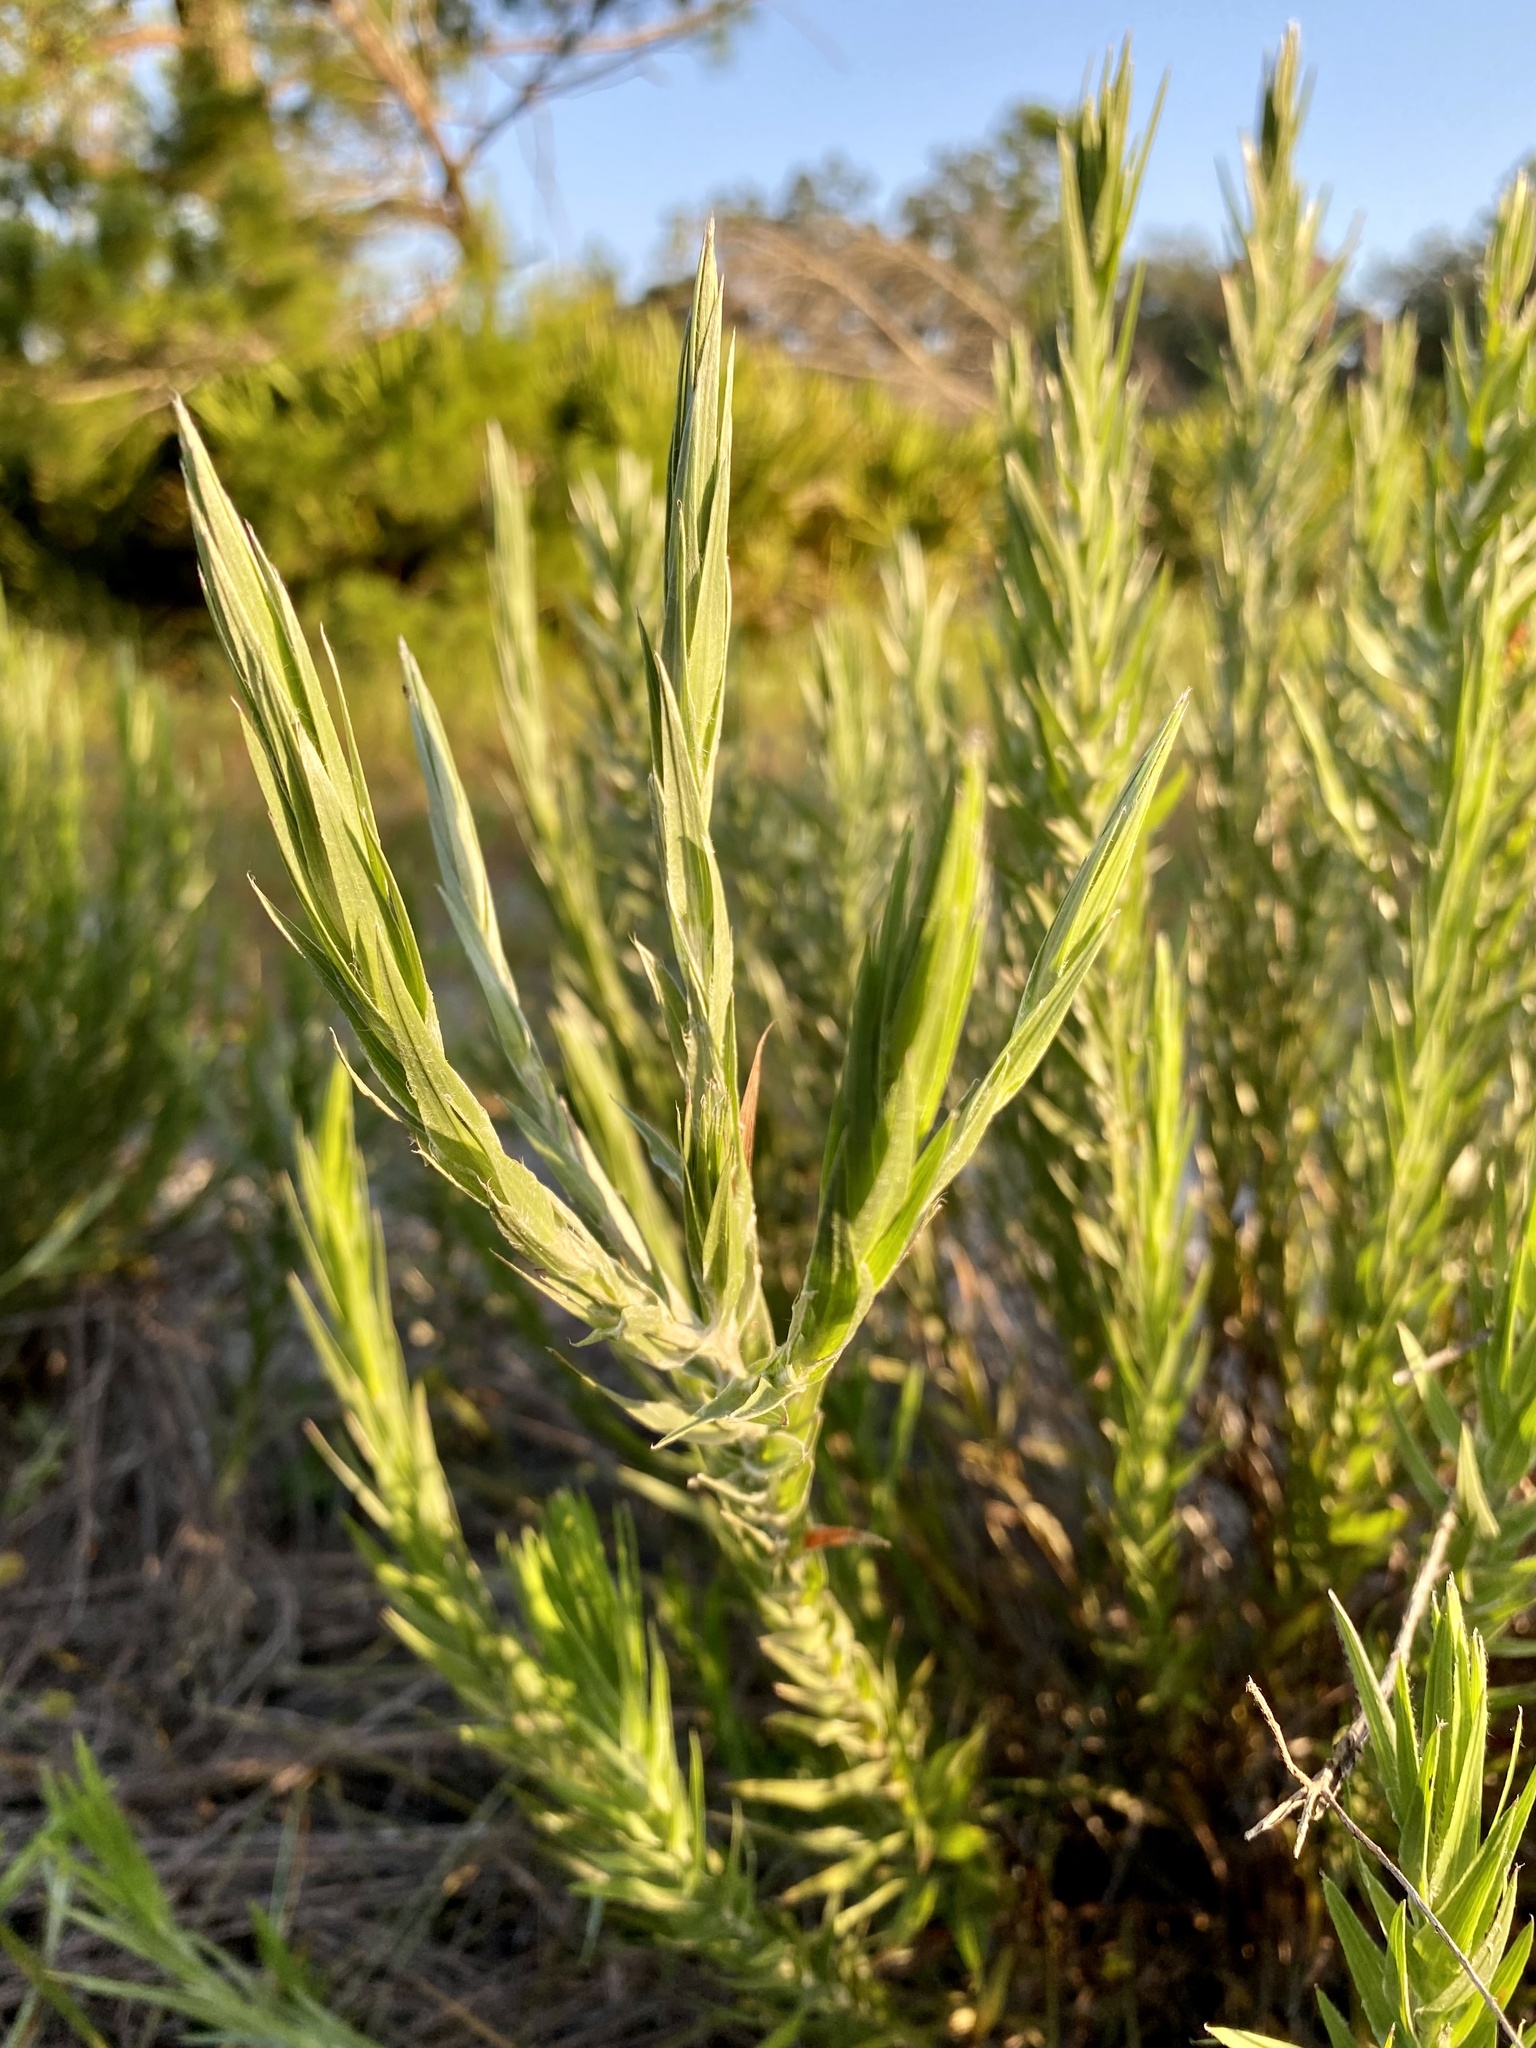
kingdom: Plantae
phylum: Tracheophyta
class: Magnoliopsida
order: Asterales
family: Asteraceae
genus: Pityopsis
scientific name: Pityopsis aequilifolia
